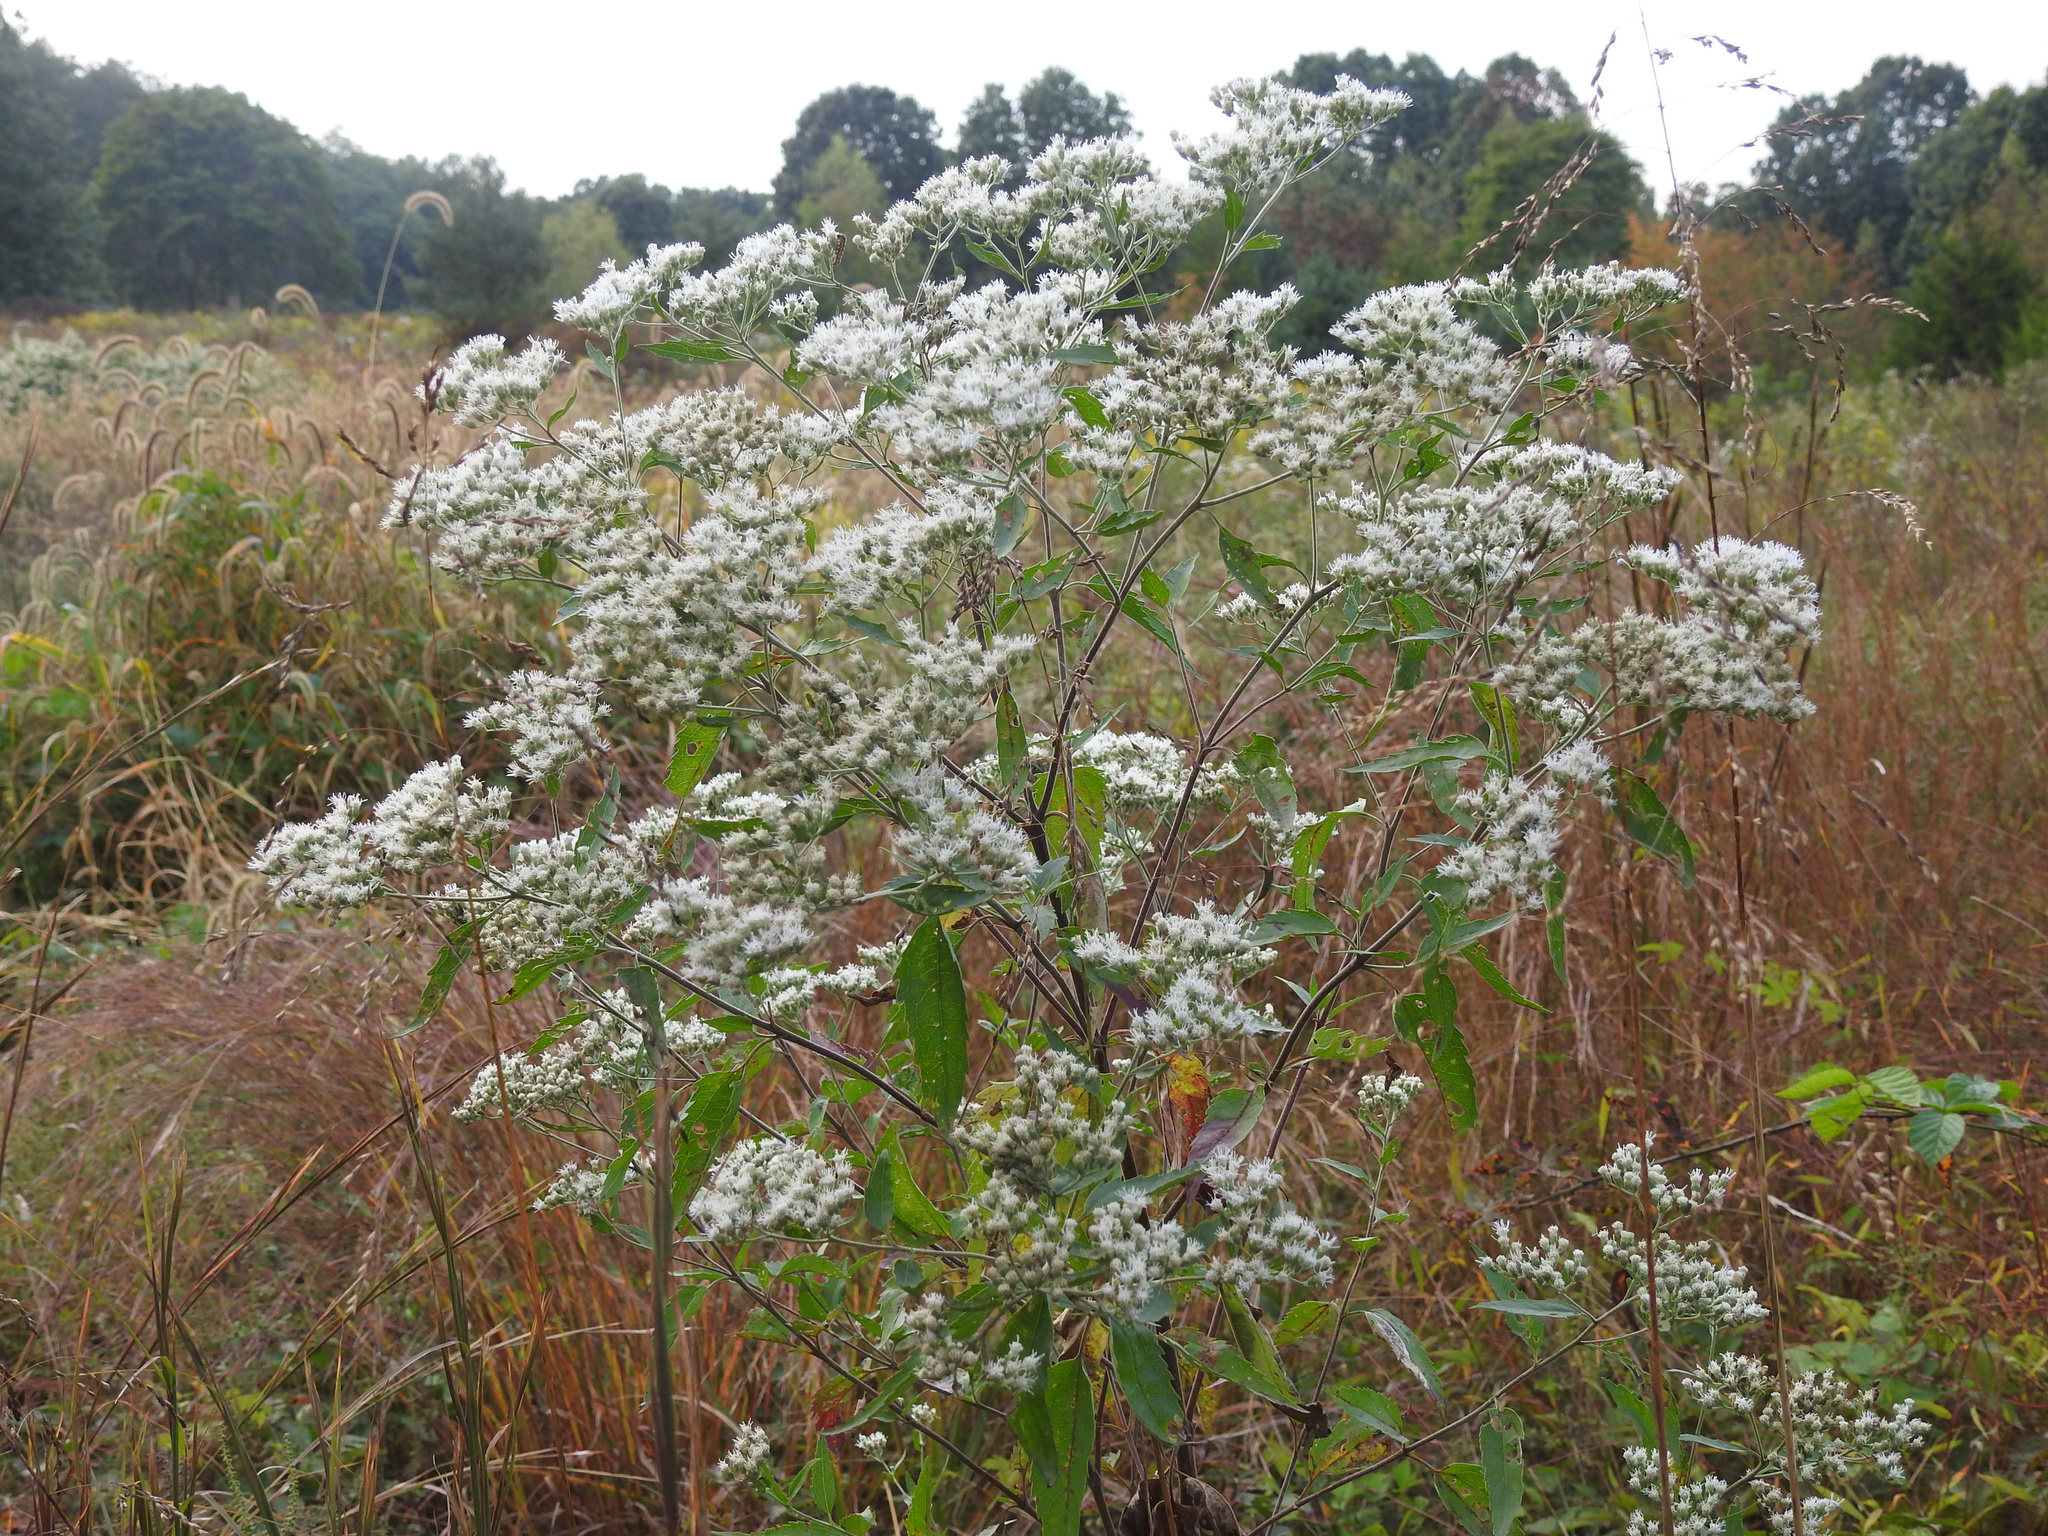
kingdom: Plantae
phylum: Tracheophyta
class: Magnoliopsida
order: Asterales
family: Asteraceae
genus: Eupatorium
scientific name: Eupatorium serotinum
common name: Late boneset
